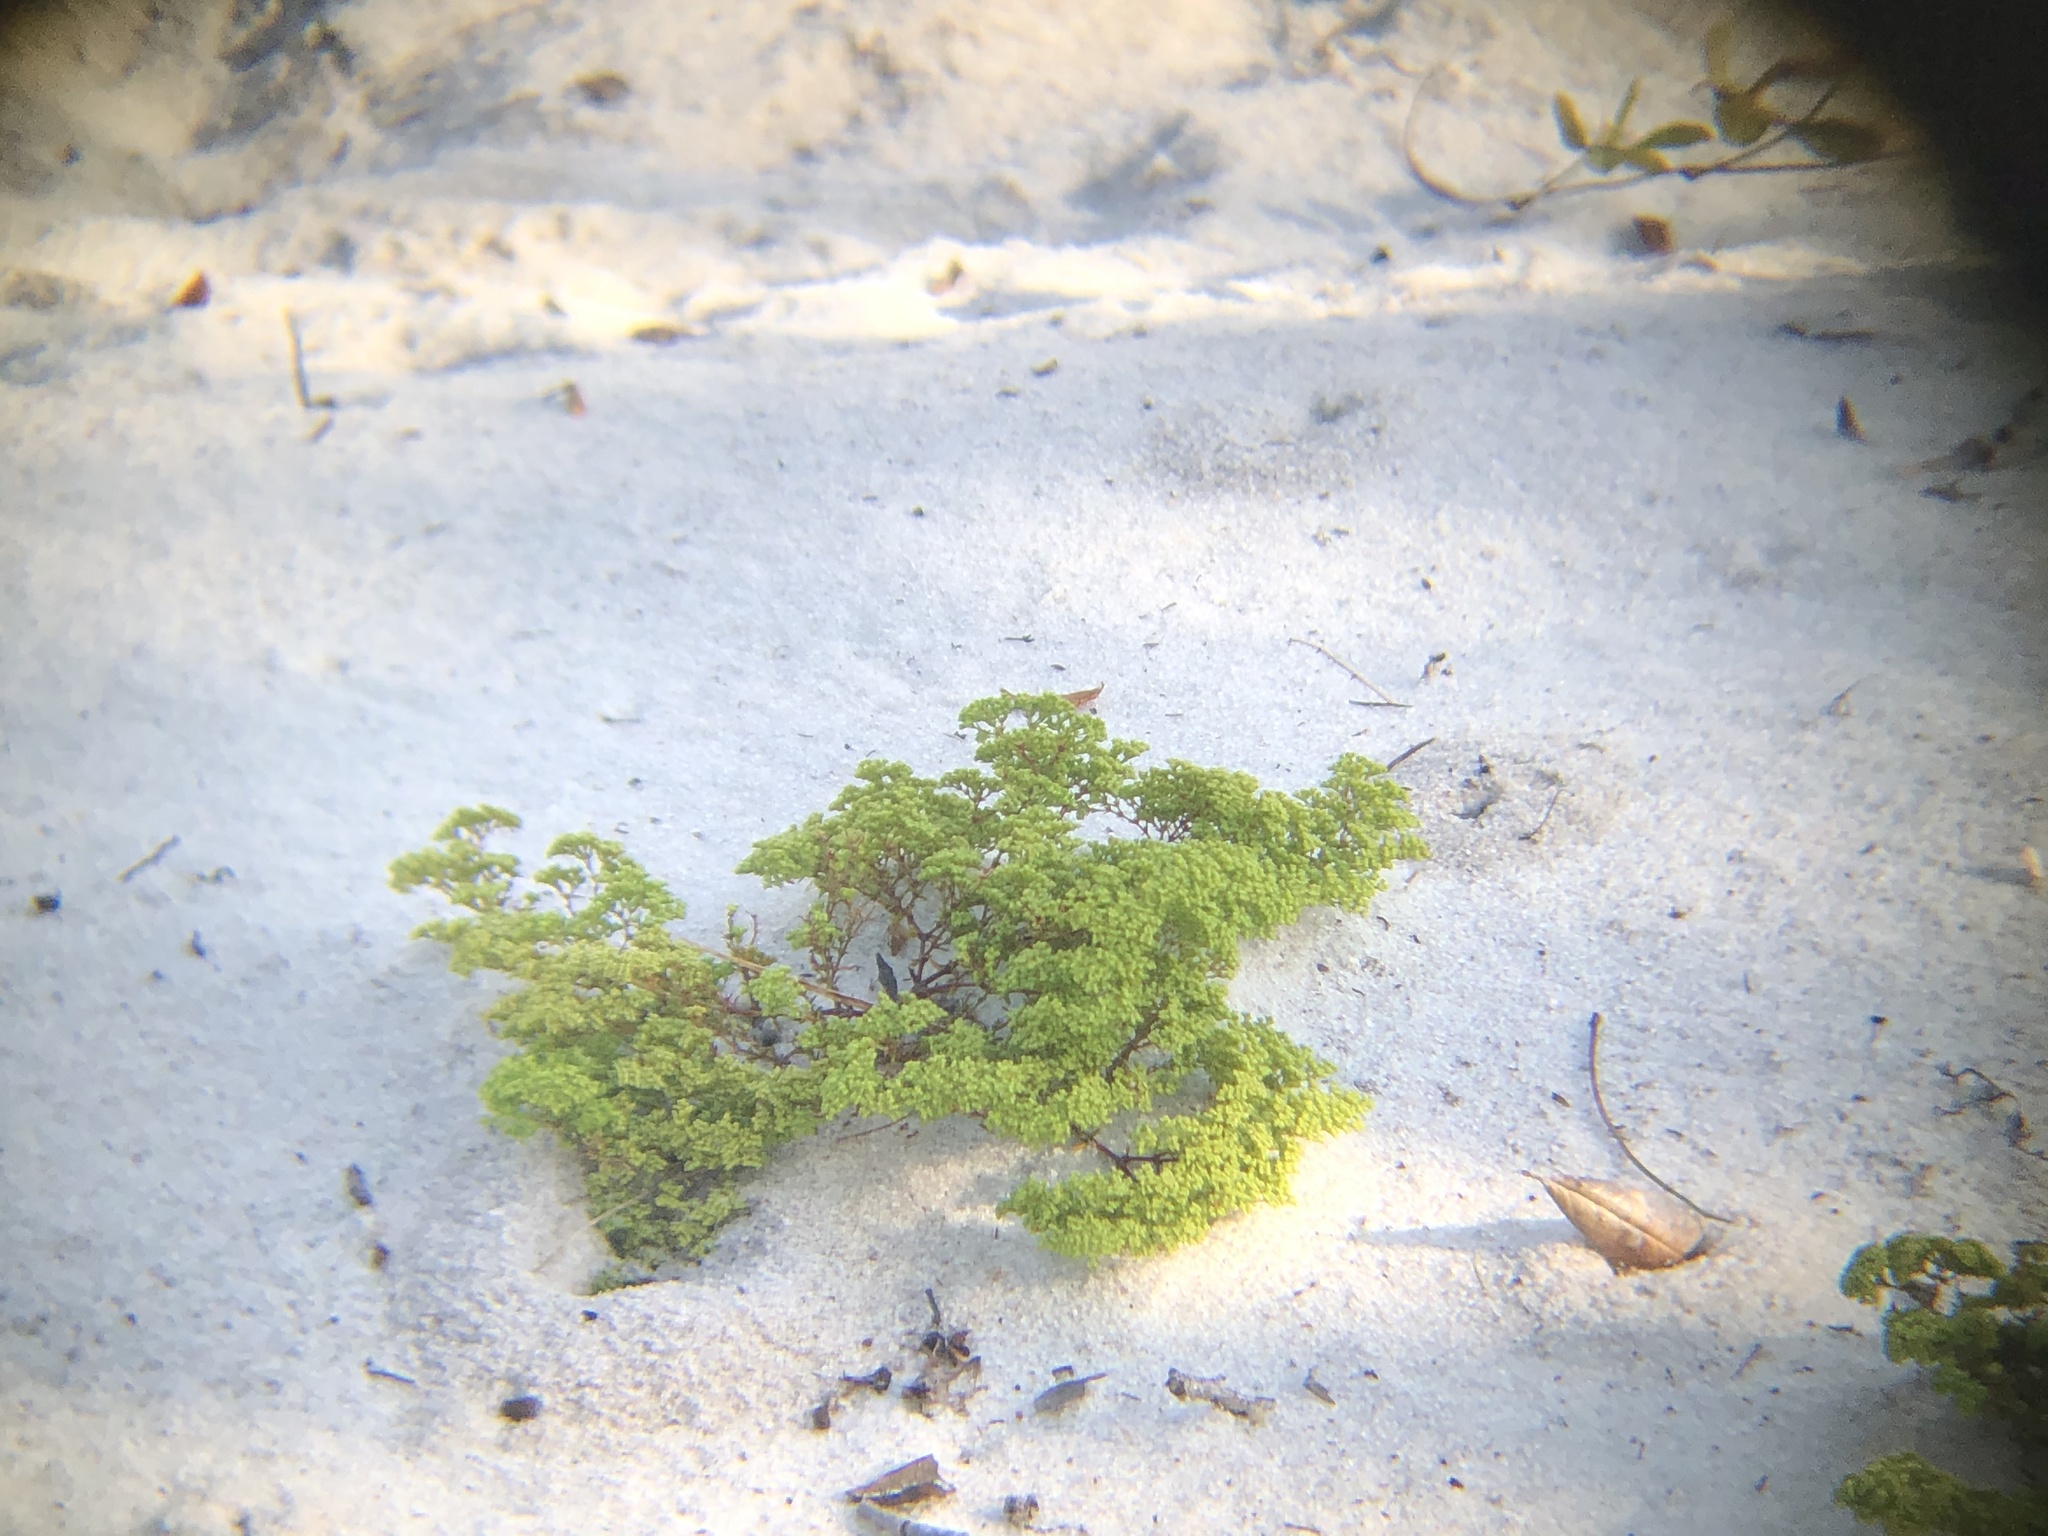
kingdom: Plantae
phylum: Tracheophyta
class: Magnoliopsida
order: Caryophyllales
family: Caryophyllaceae
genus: Paronychia
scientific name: Paronychia chartacea
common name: Paper nailwort
